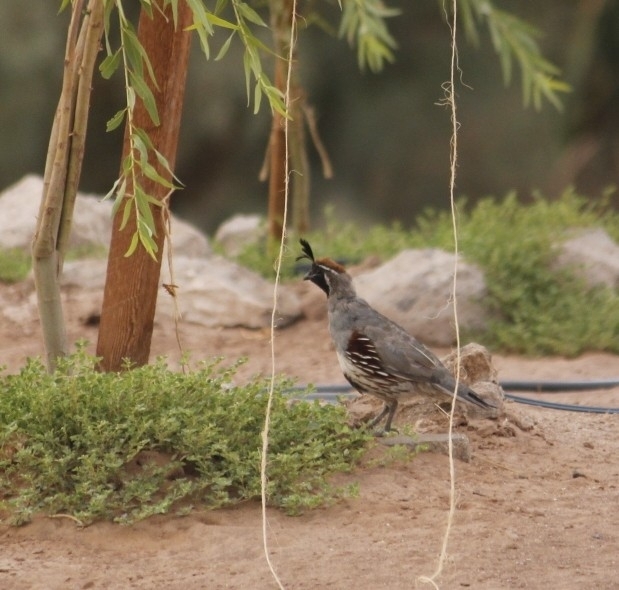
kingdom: Animalia
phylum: Chordata
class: Aves
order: Galliformes
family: Odontophoridae
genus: Callipepla
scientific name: Callipepla gambelii
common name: Gambel's quail
